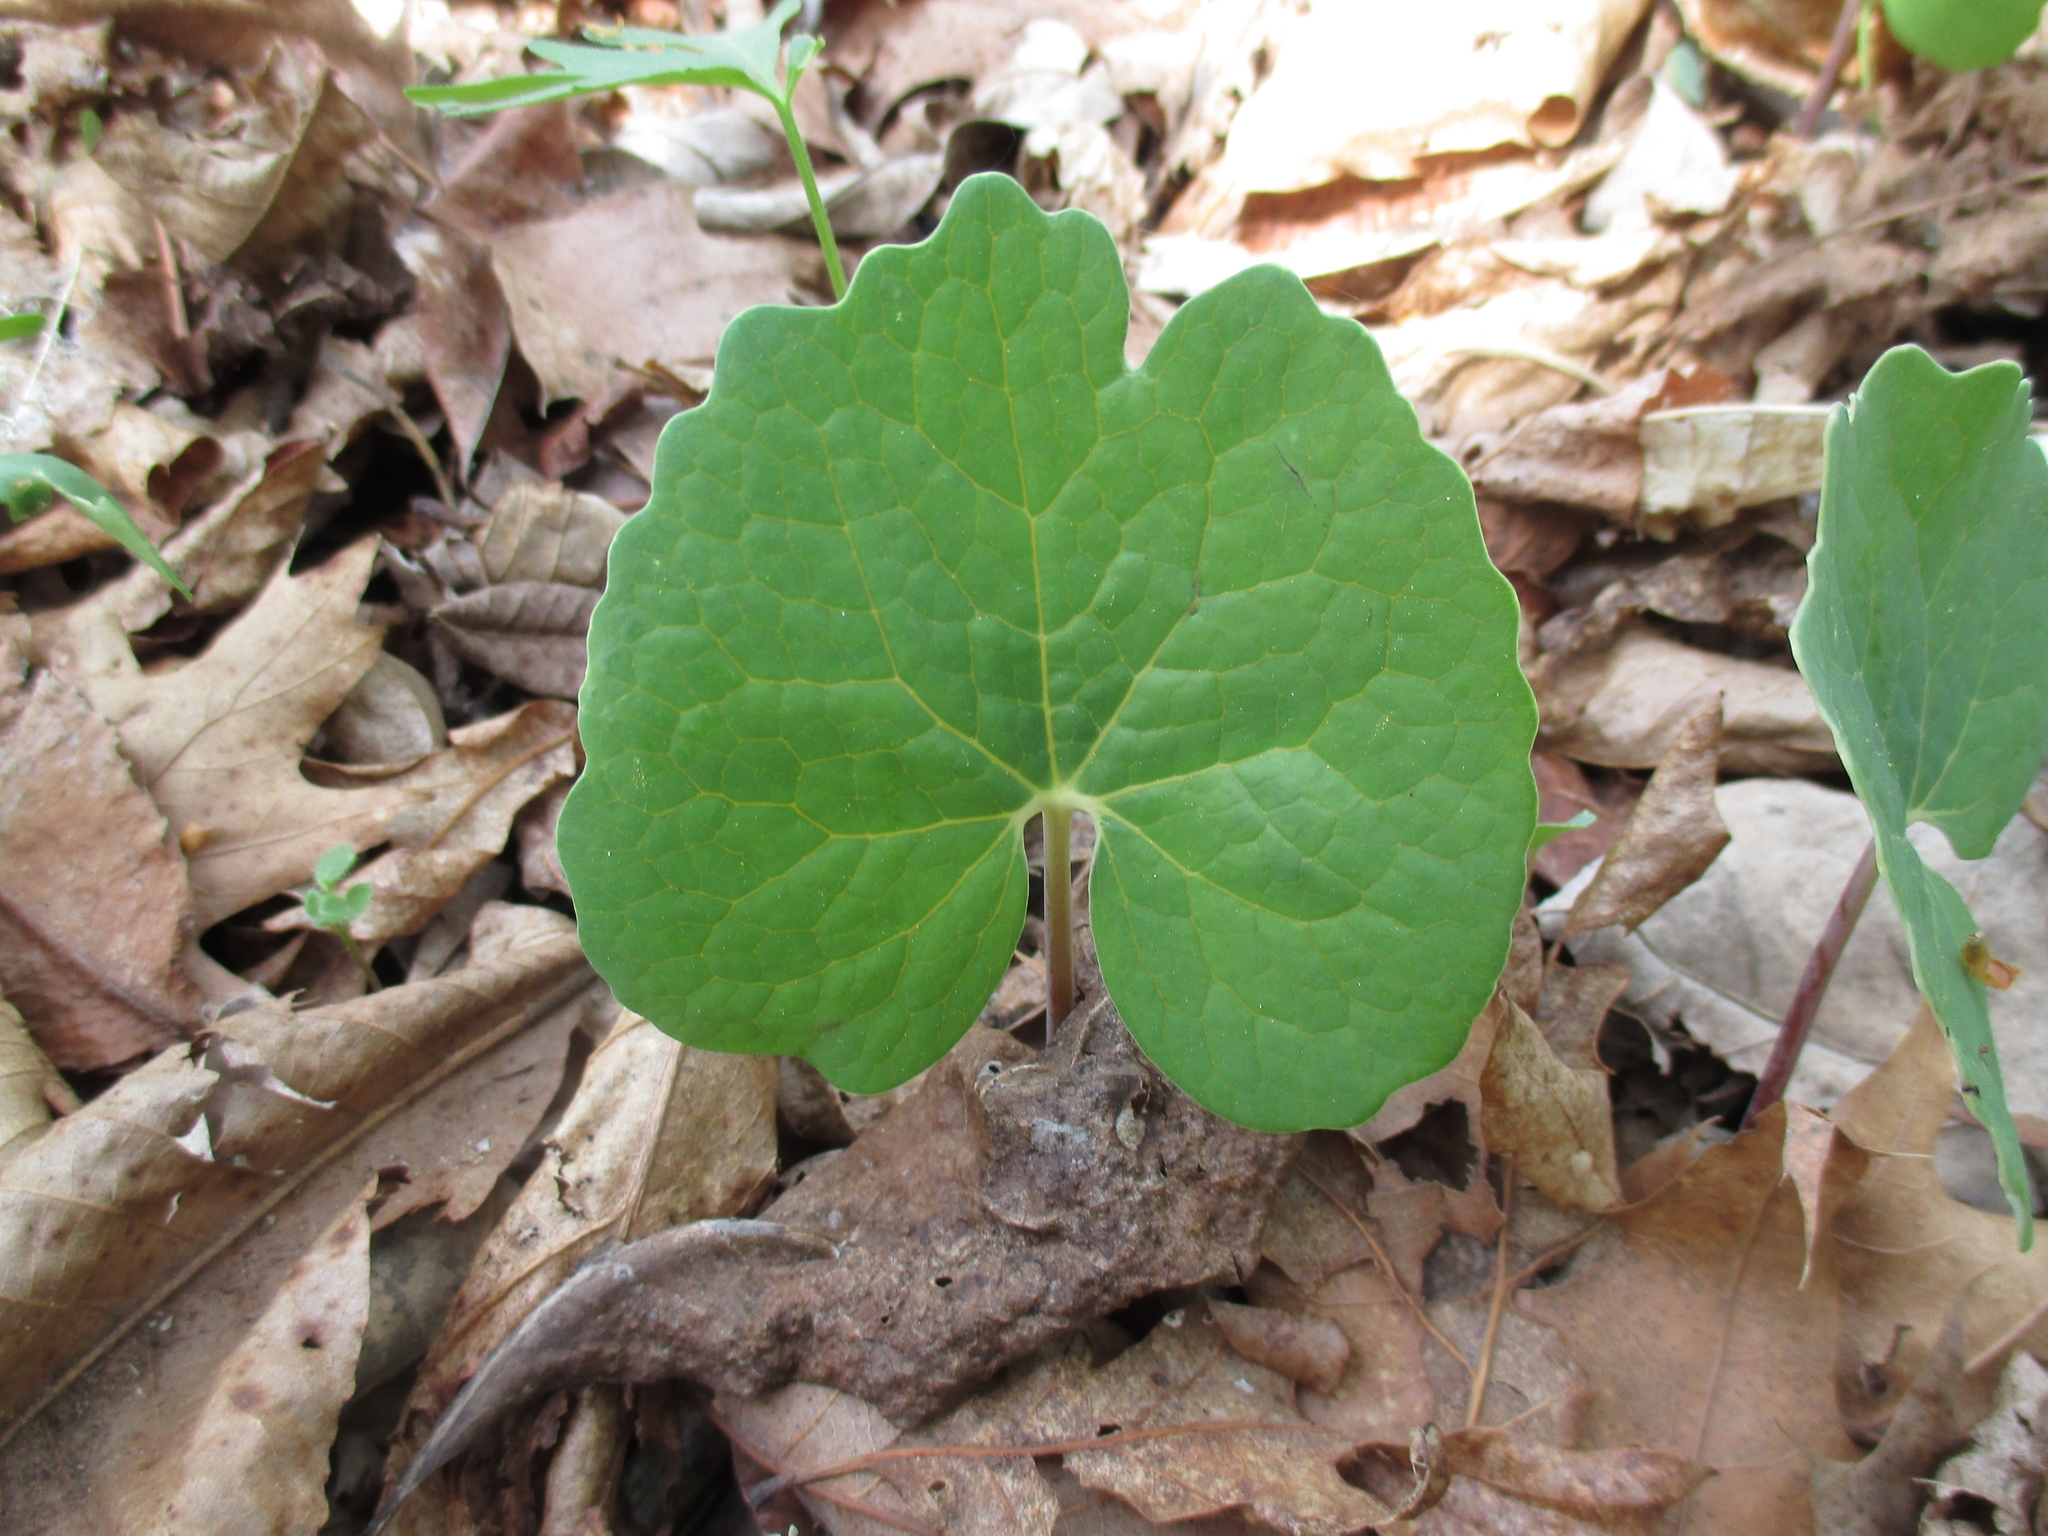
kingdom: Plantae
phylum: Tracheophyta
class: Magnoliopsida
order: Ranunculales
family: Papaveraceae
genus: Sanguinaria
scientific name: Sanguinaria canadensis
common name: Bloodroot
